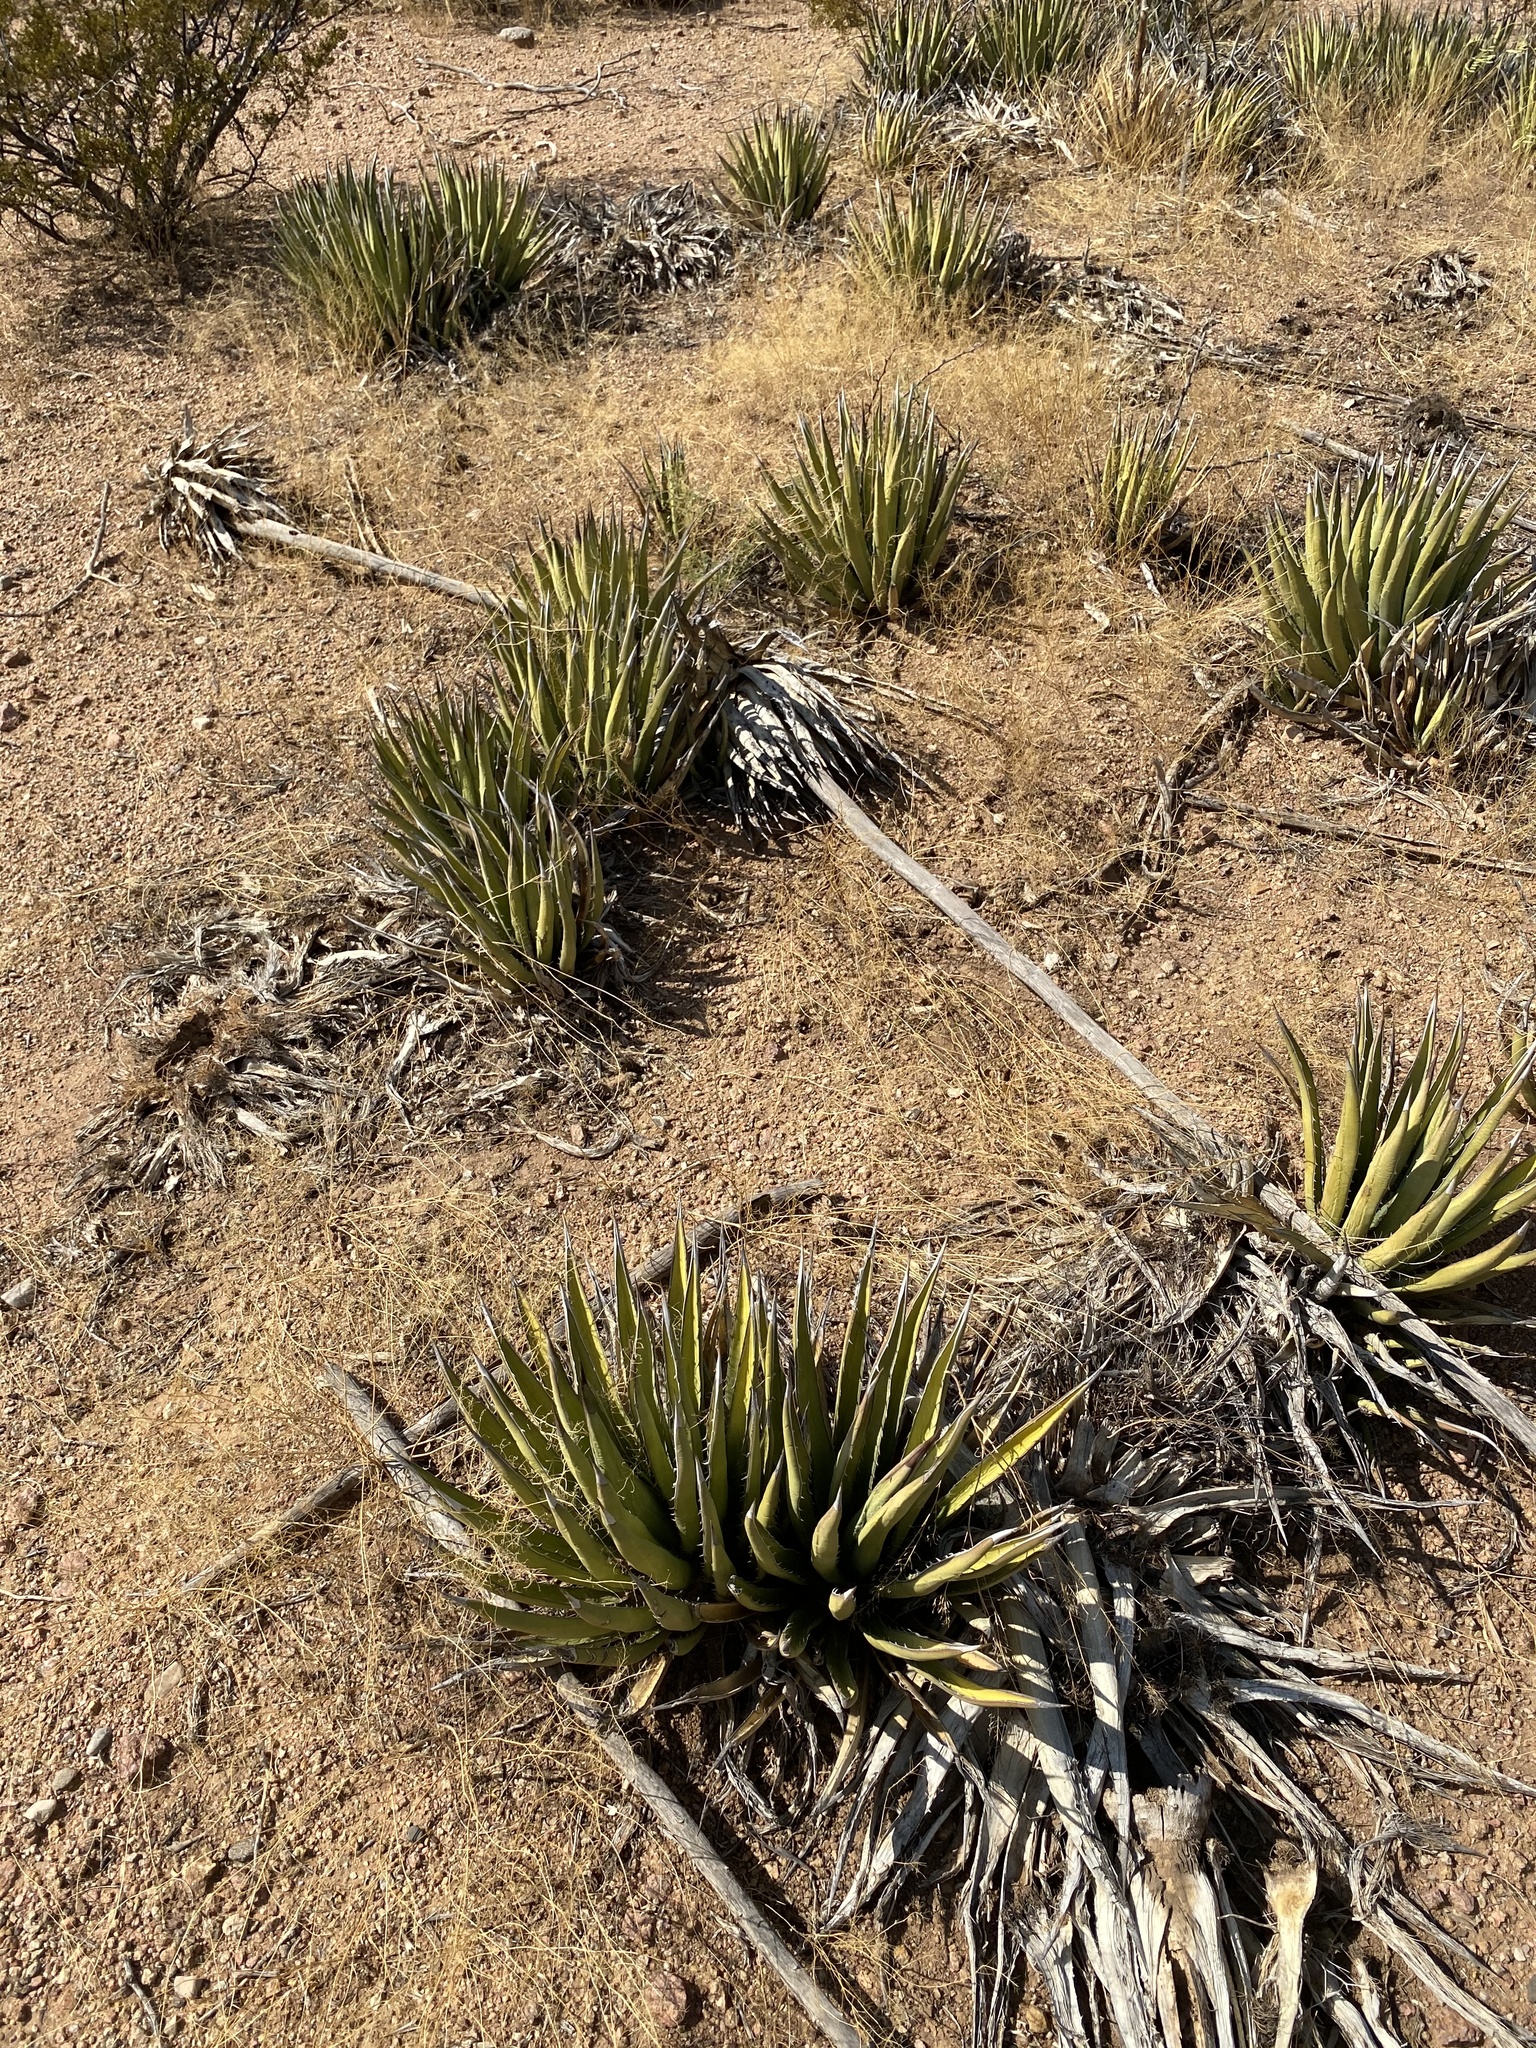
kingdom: Plantae
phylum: Tracheophyta
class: Liliopsida
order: Asparagales
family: Asparagaceae
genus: Agave
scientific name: Agave lechuguilla
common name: Lecheguilla agave
